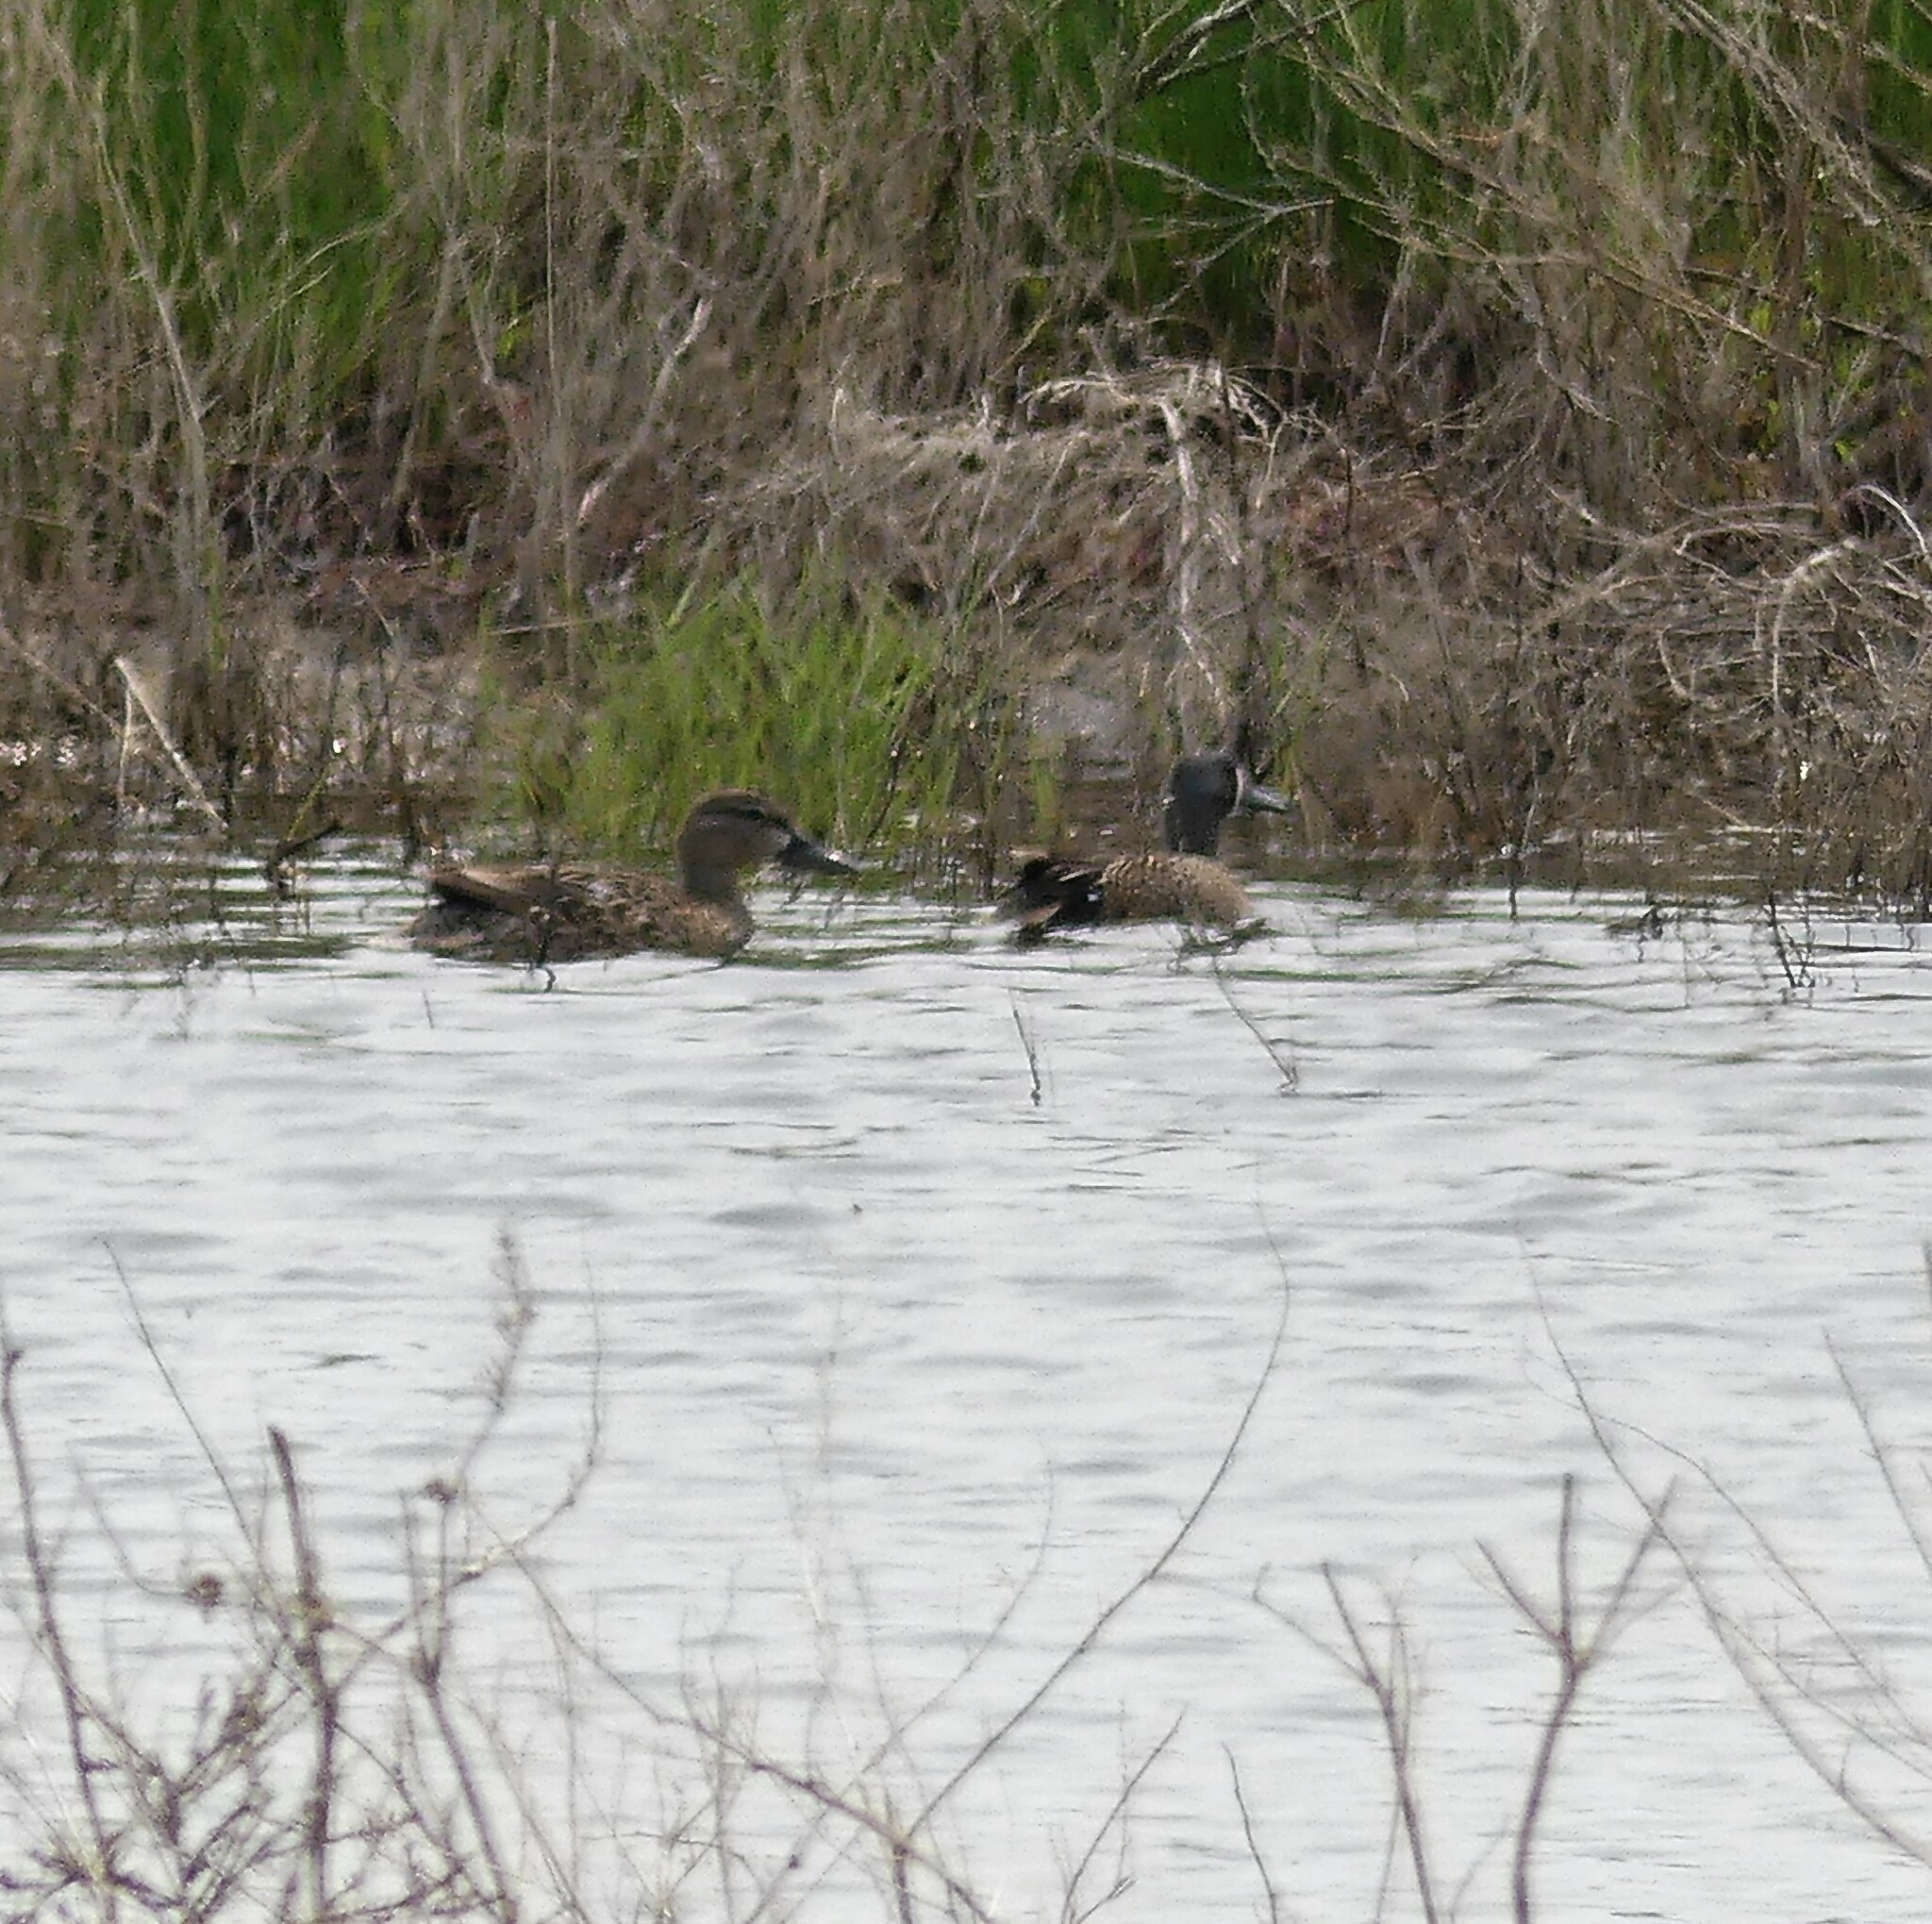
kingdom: Animalia
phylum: Chordata
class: Aves
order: Anseriformes
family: Anatidae
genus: Spatula
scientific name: Spatula discors
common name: Blue-winged teal
